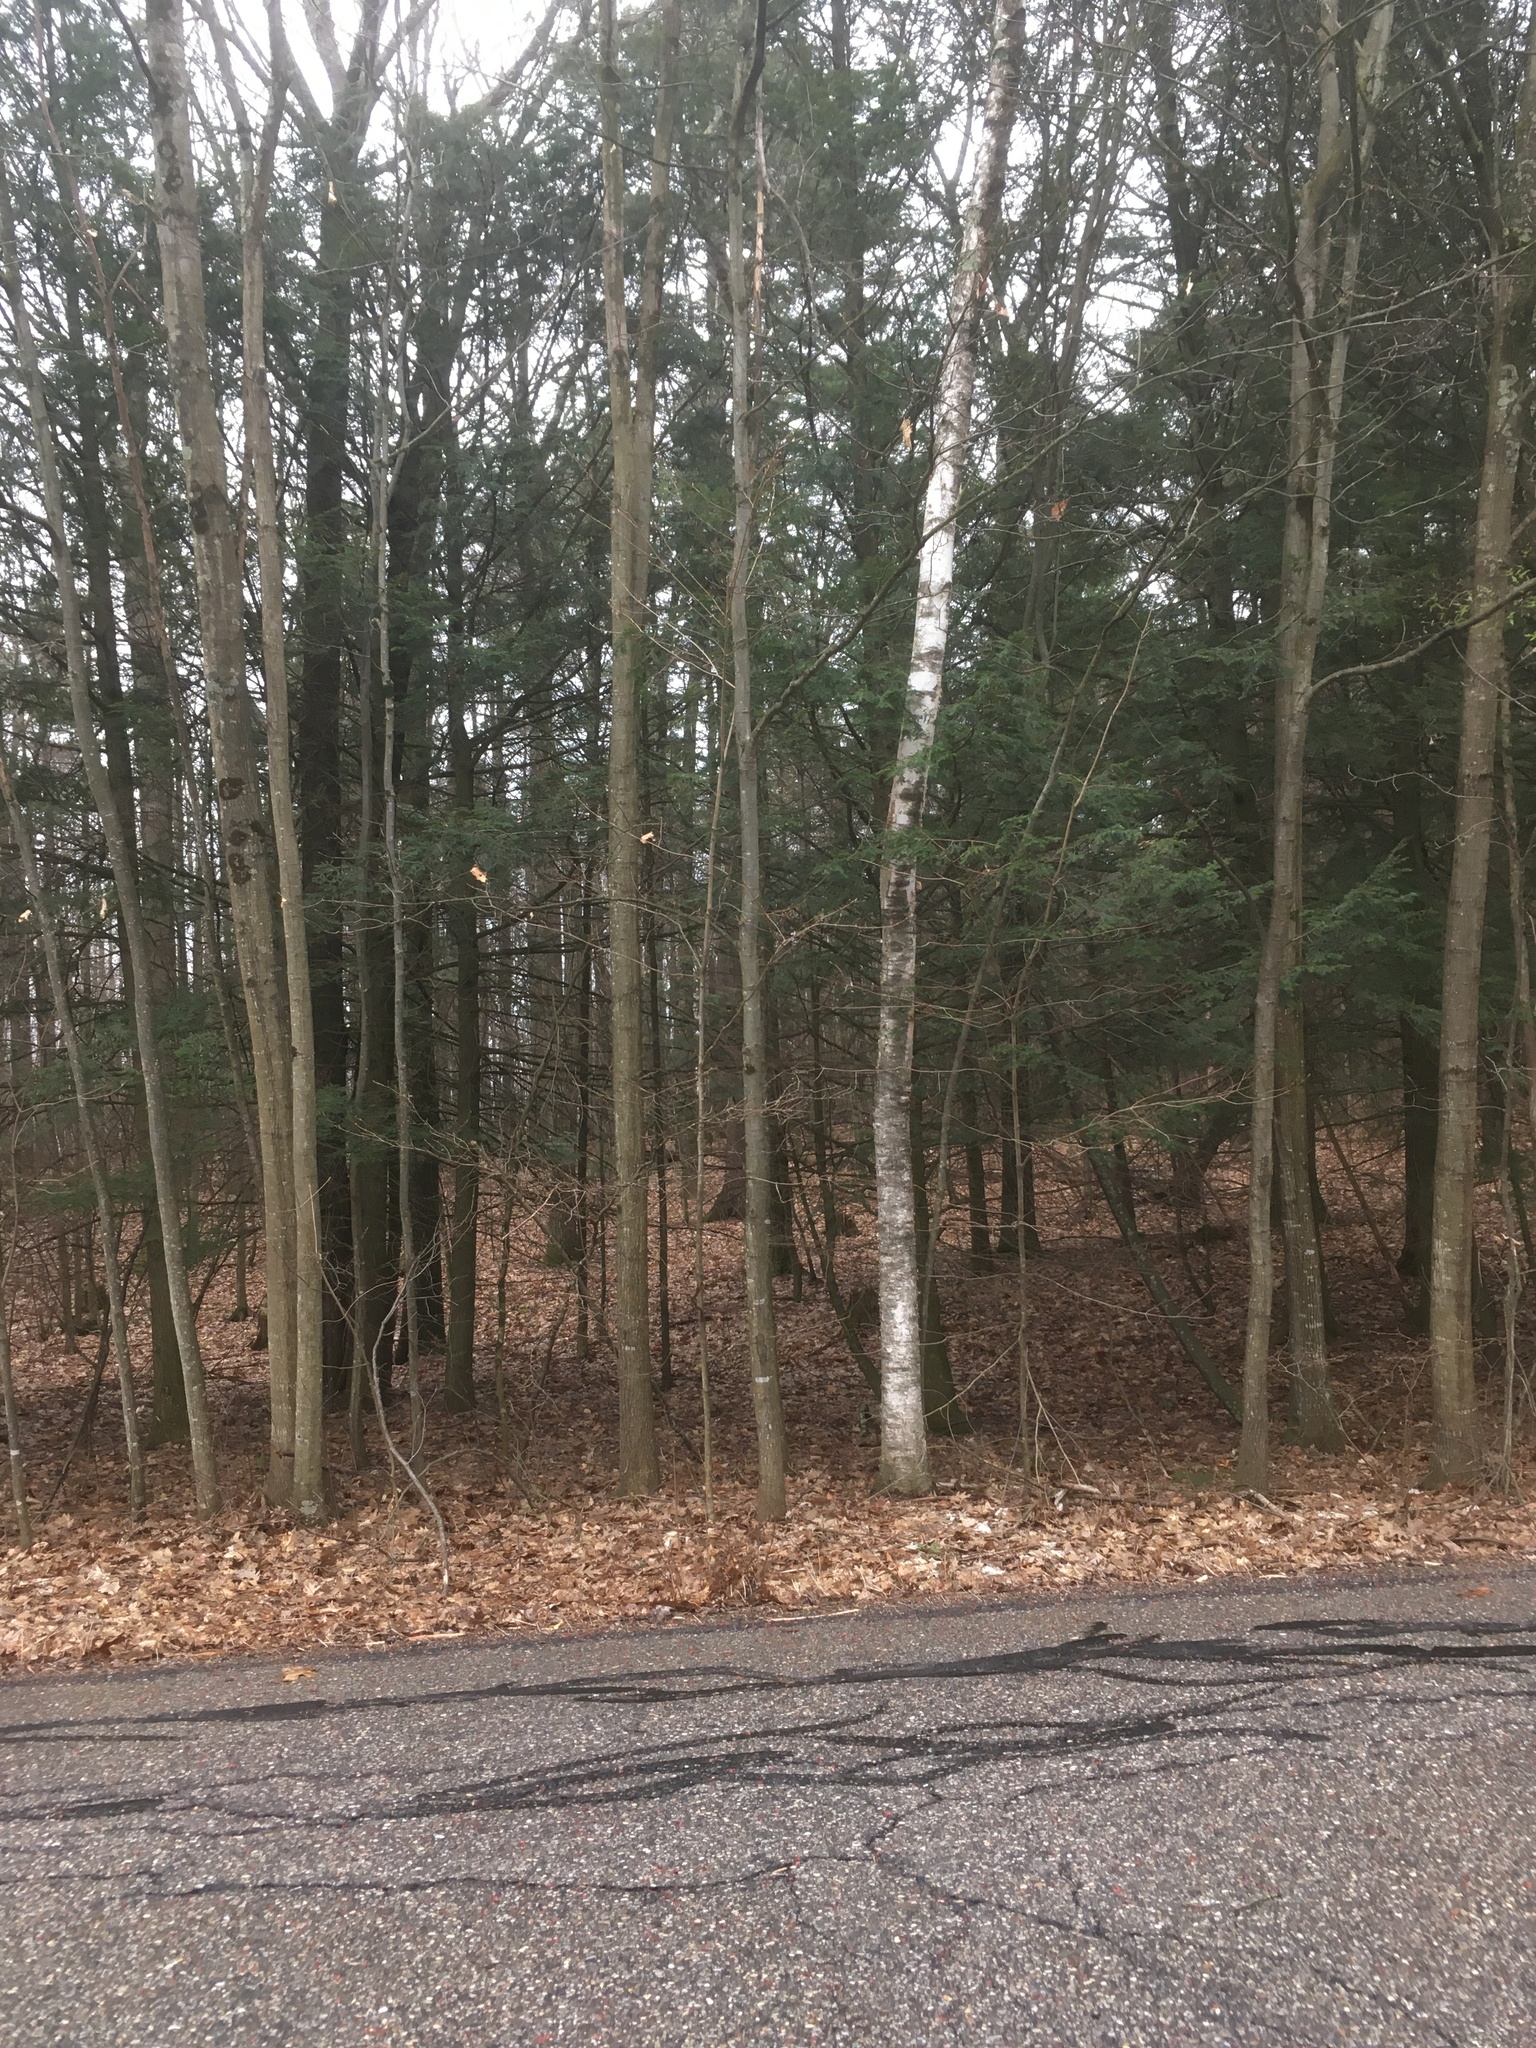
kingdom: Plantae
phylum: Tracheophyta
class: Pinopsida
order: Pinales
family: Pinaceae
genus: Tsuga
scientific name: Tsuga canadensis
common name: Eastern hemlock
